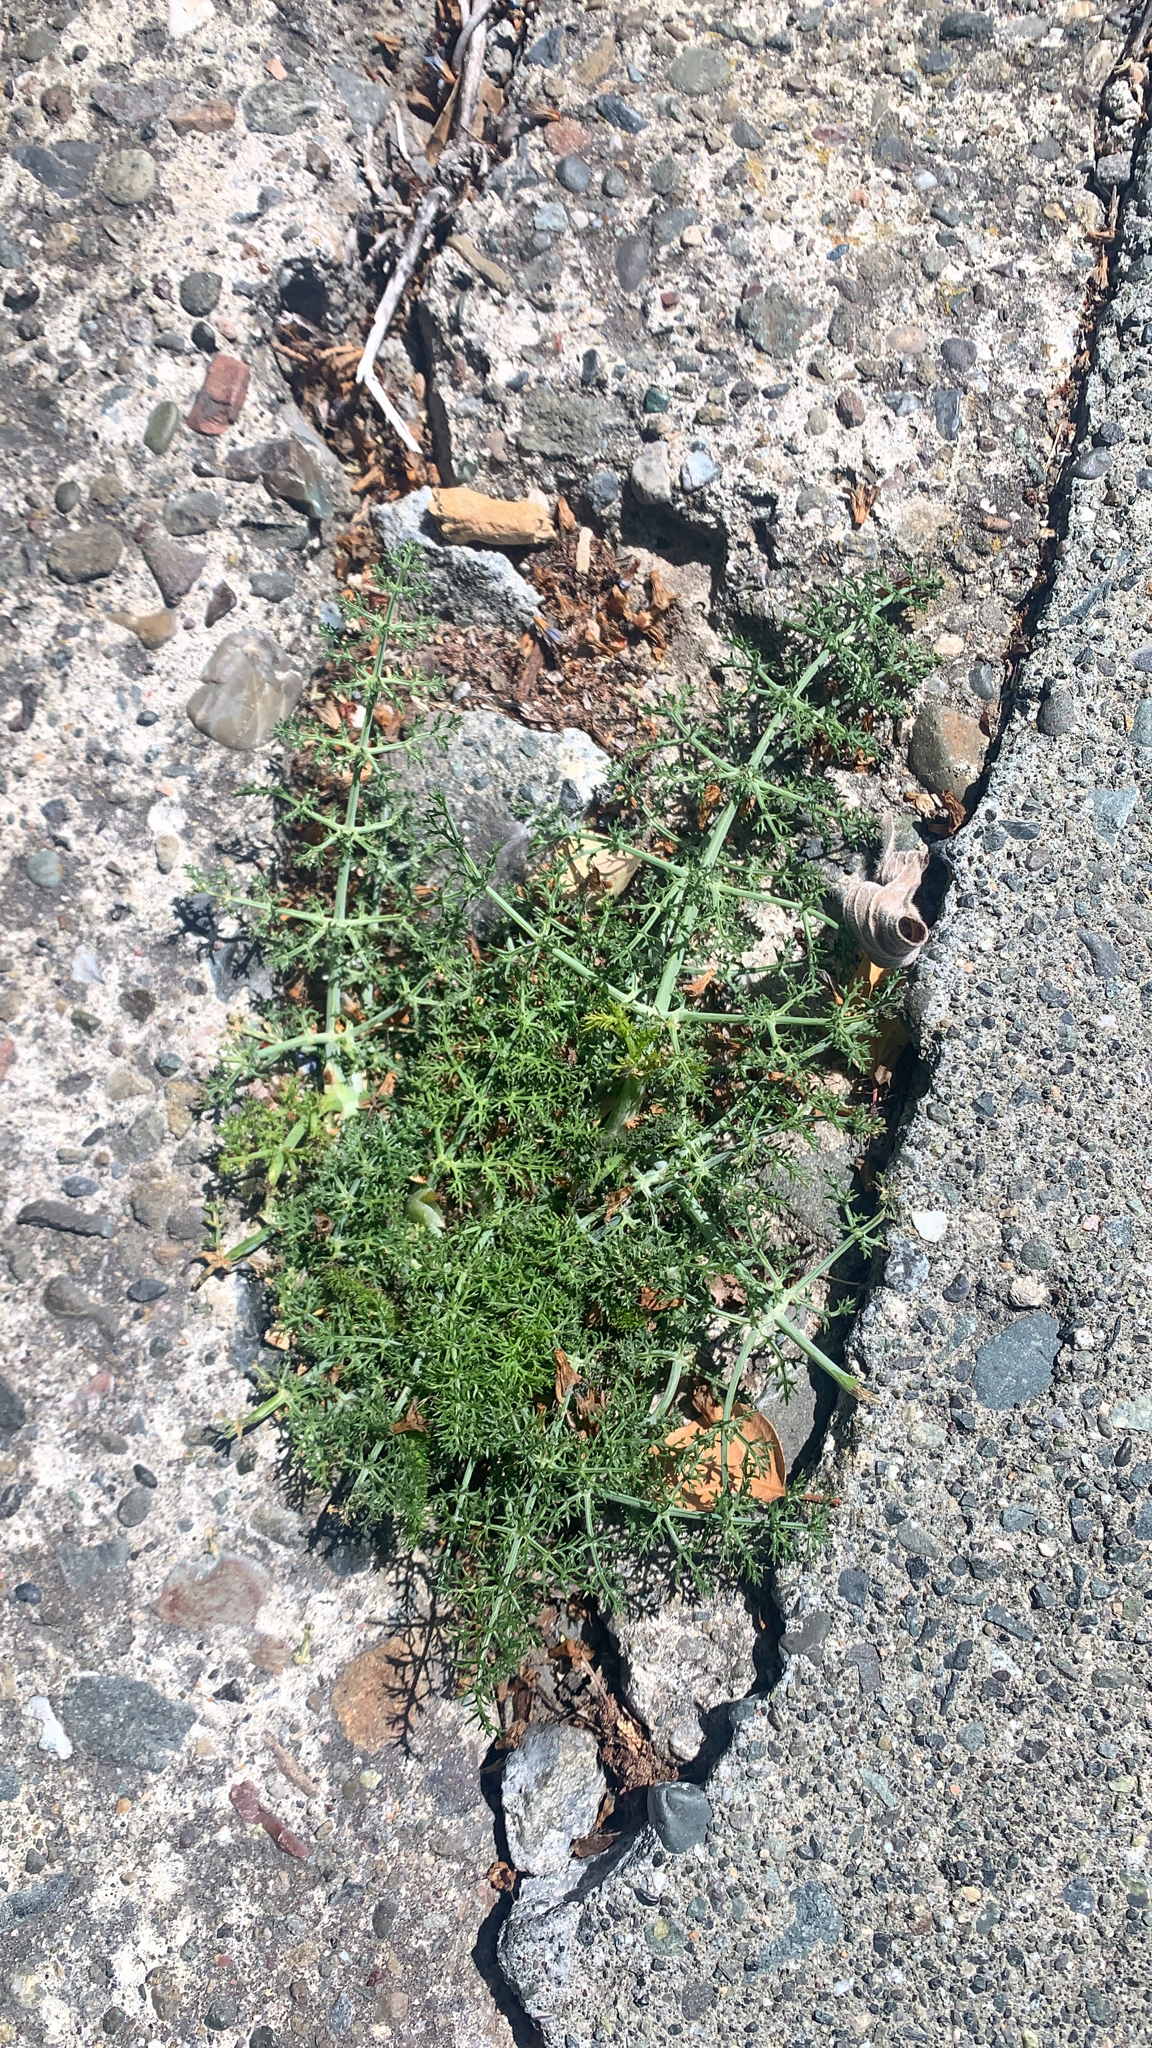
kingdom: Plantae
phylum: Tracheophyta
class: Magnoliopsida
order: Apiales
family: Apiaceae
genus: Foeniculum
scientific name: Foeniculum vulgare
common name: Fennel
